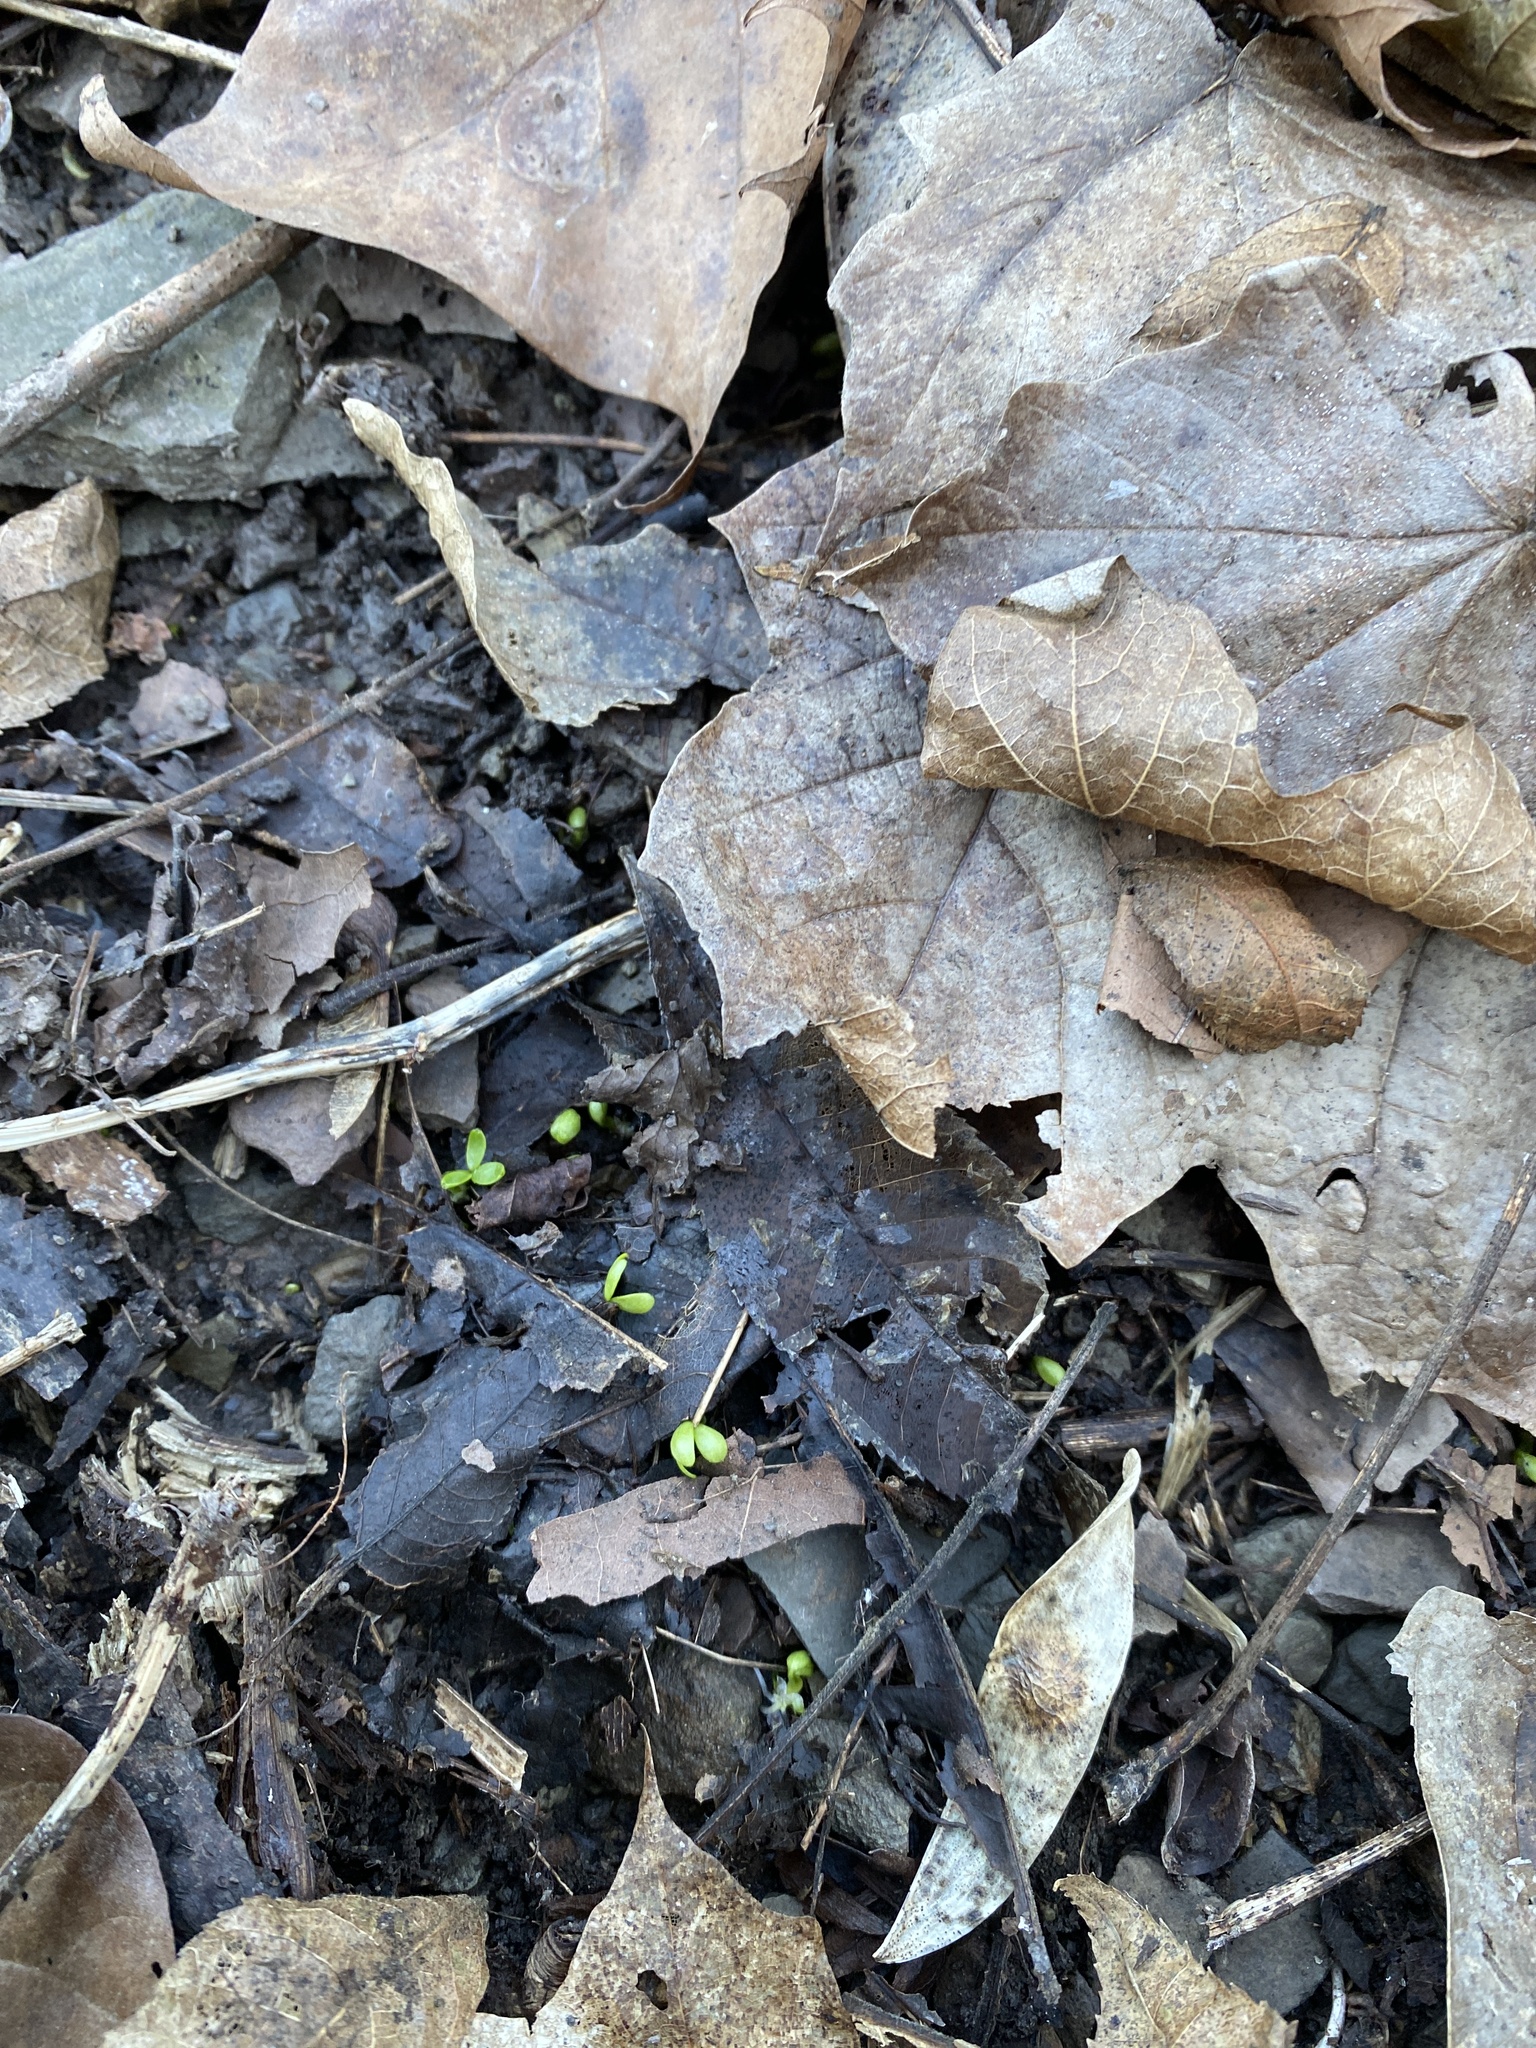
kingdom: Plantae
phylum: Tracheophyta
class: Magnoliopsida
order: Brassicales
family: Limnanthaceae
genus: Floerkea
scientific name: Floerkea proserpinacoides
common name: False mermaid
